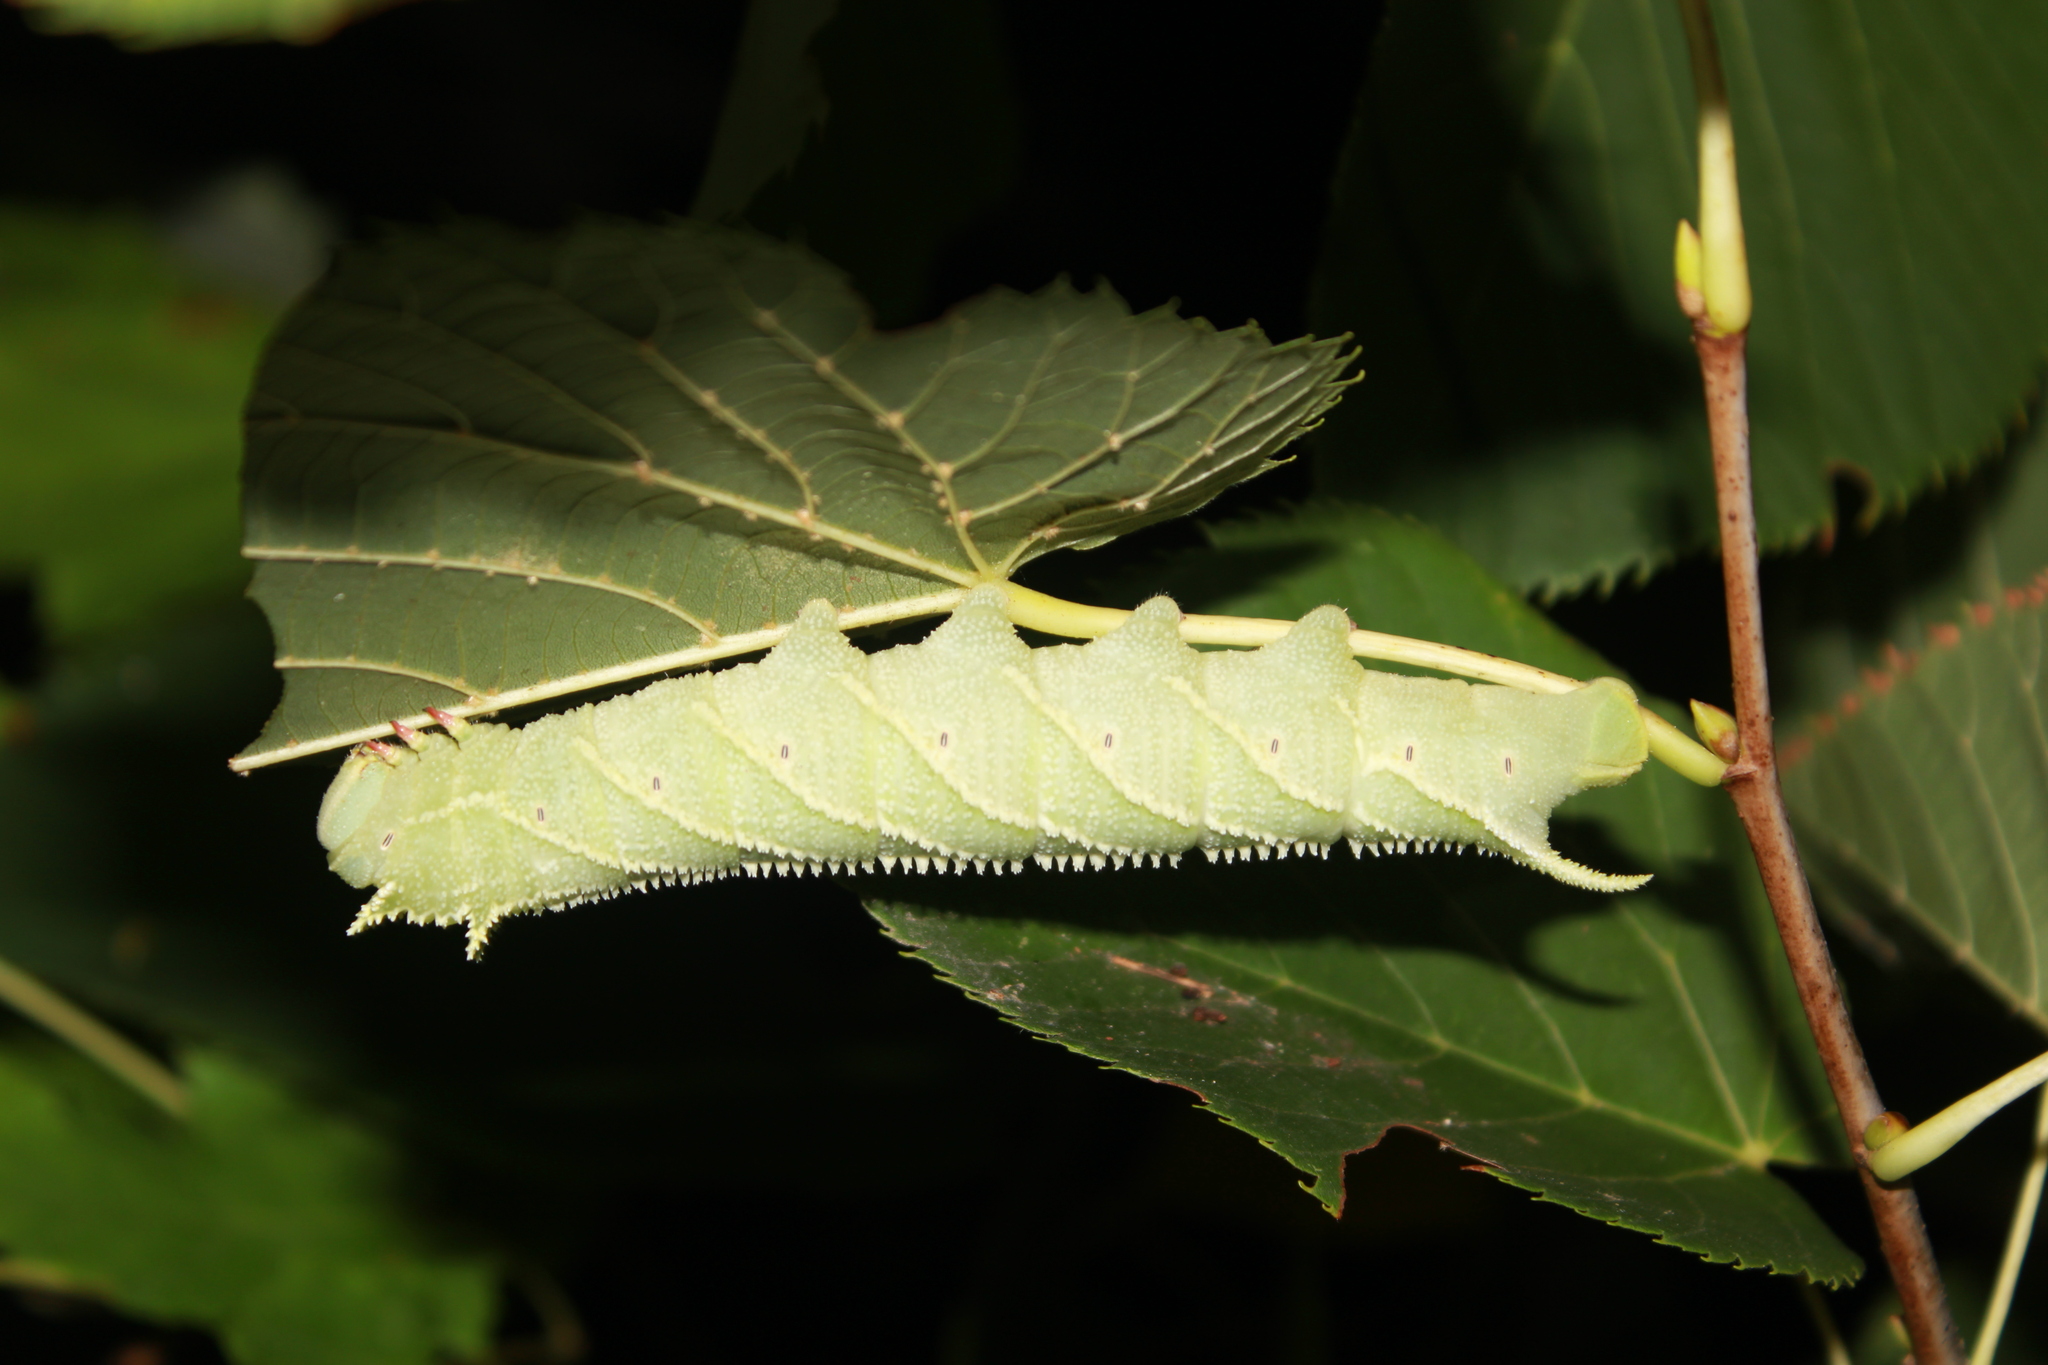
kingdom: Animalia
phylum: Arthropoda
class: Insecta
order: Lepidoptera
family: Sphingidae
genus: Ceratomia
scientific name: Ceratomia amyntor
